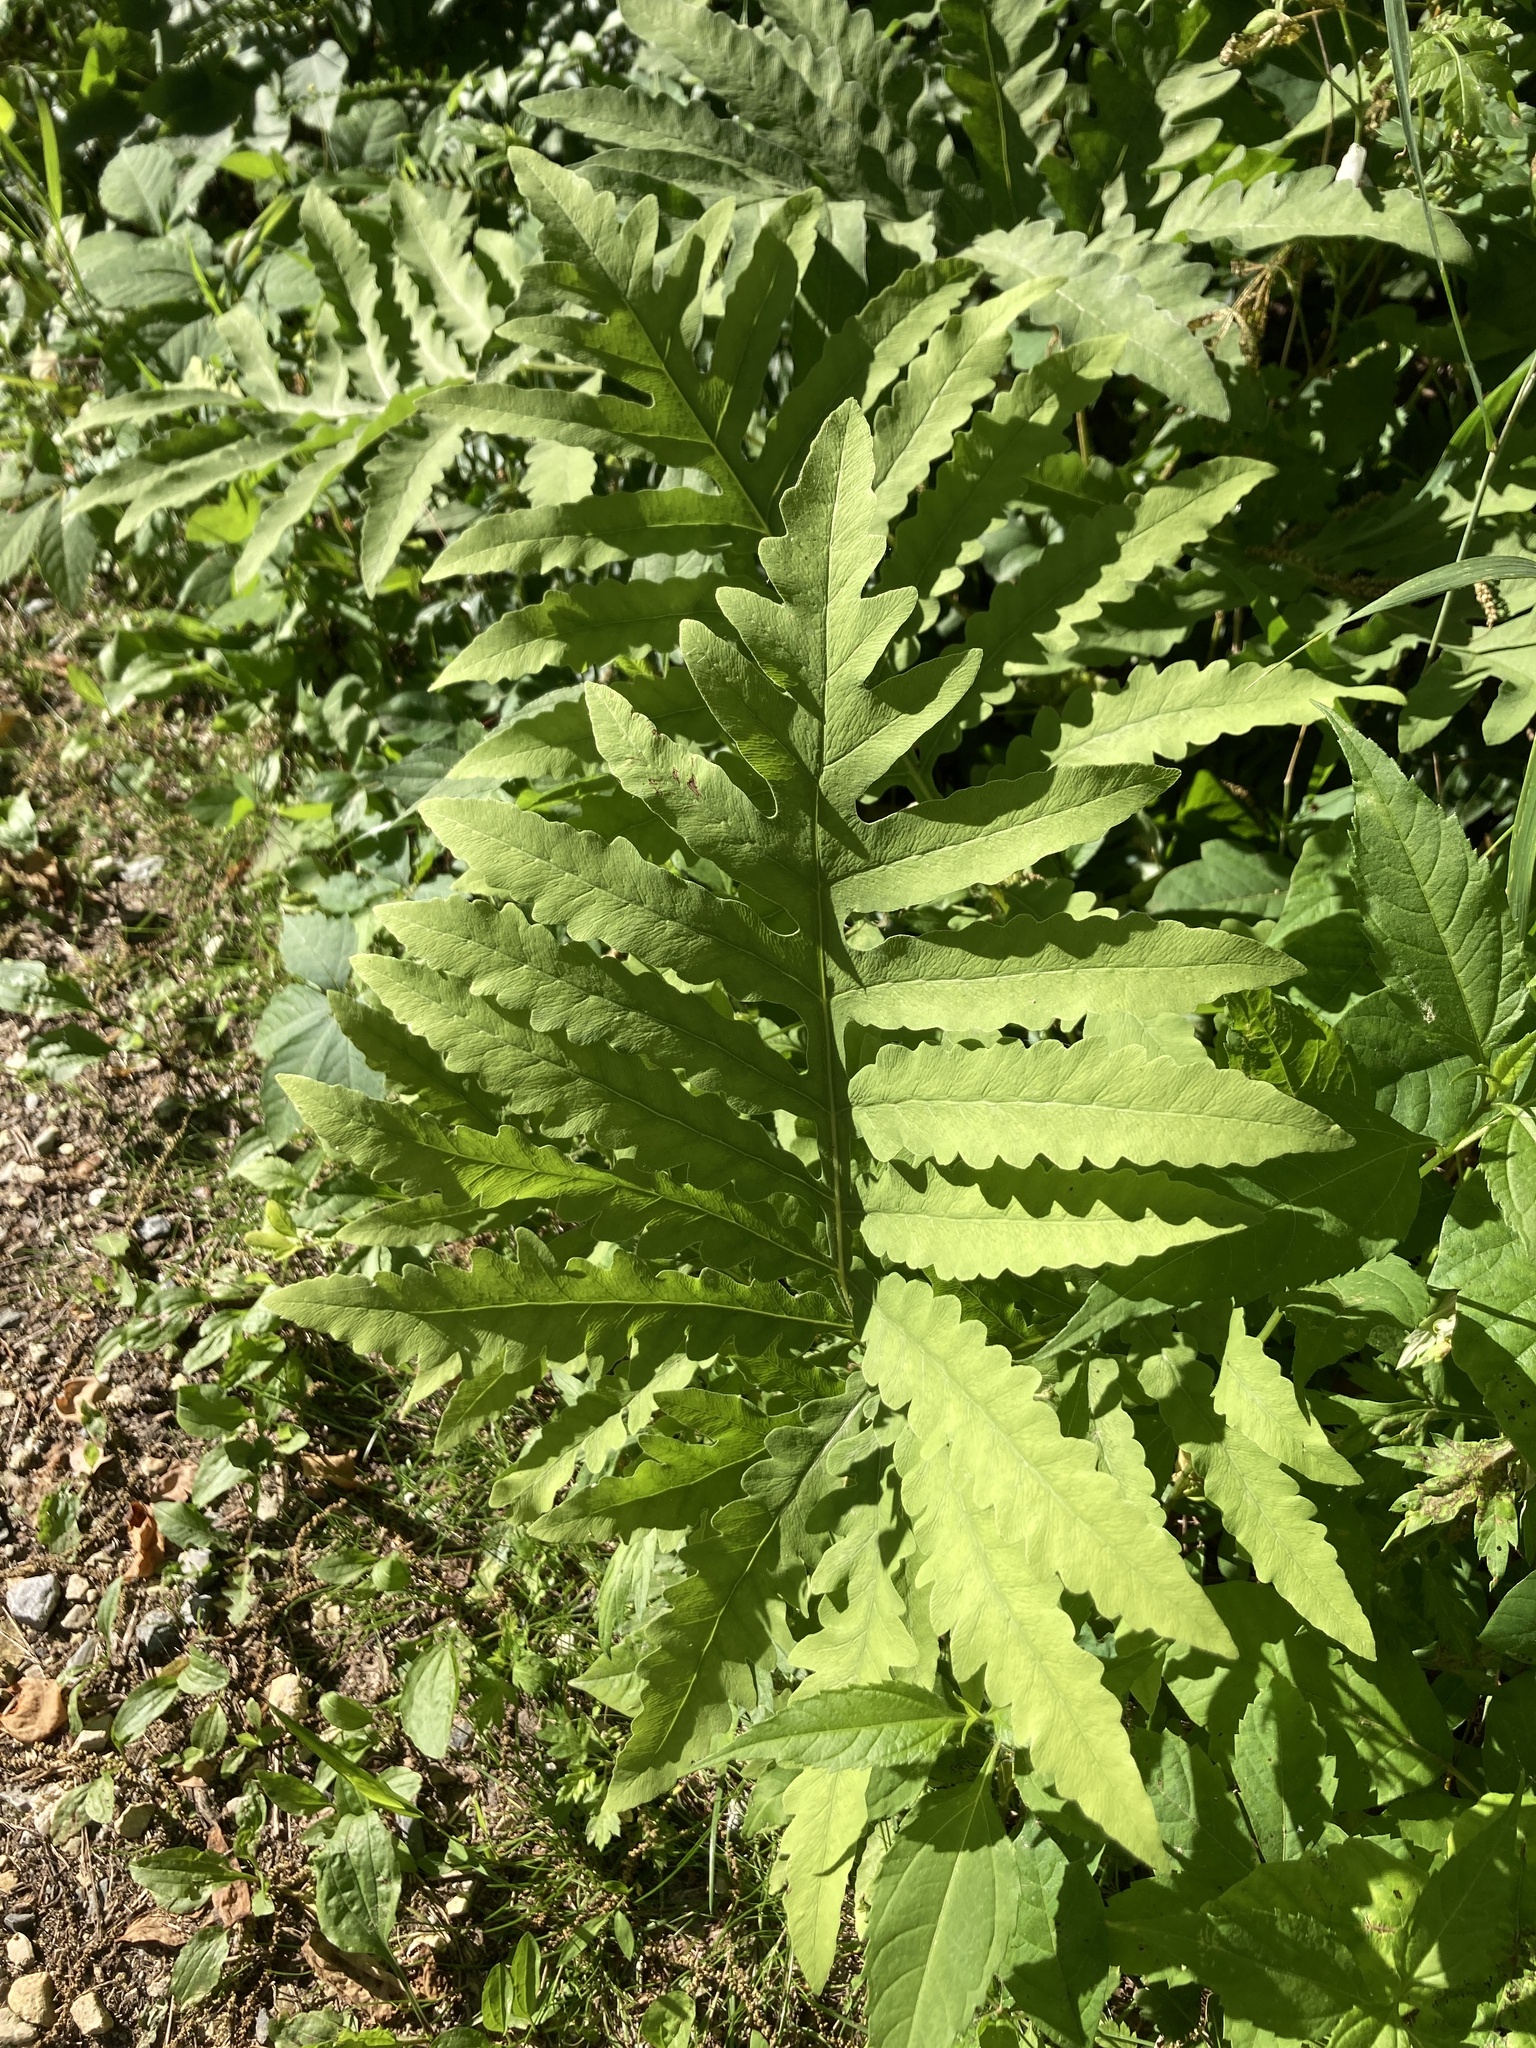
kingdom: Plantae
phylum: Tracheophyta
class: Polypodiopsida
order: Polypodiales
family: Onocleaceae
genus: Onoclea
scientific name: Onoclea sensibilis
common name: Sensitive fern
